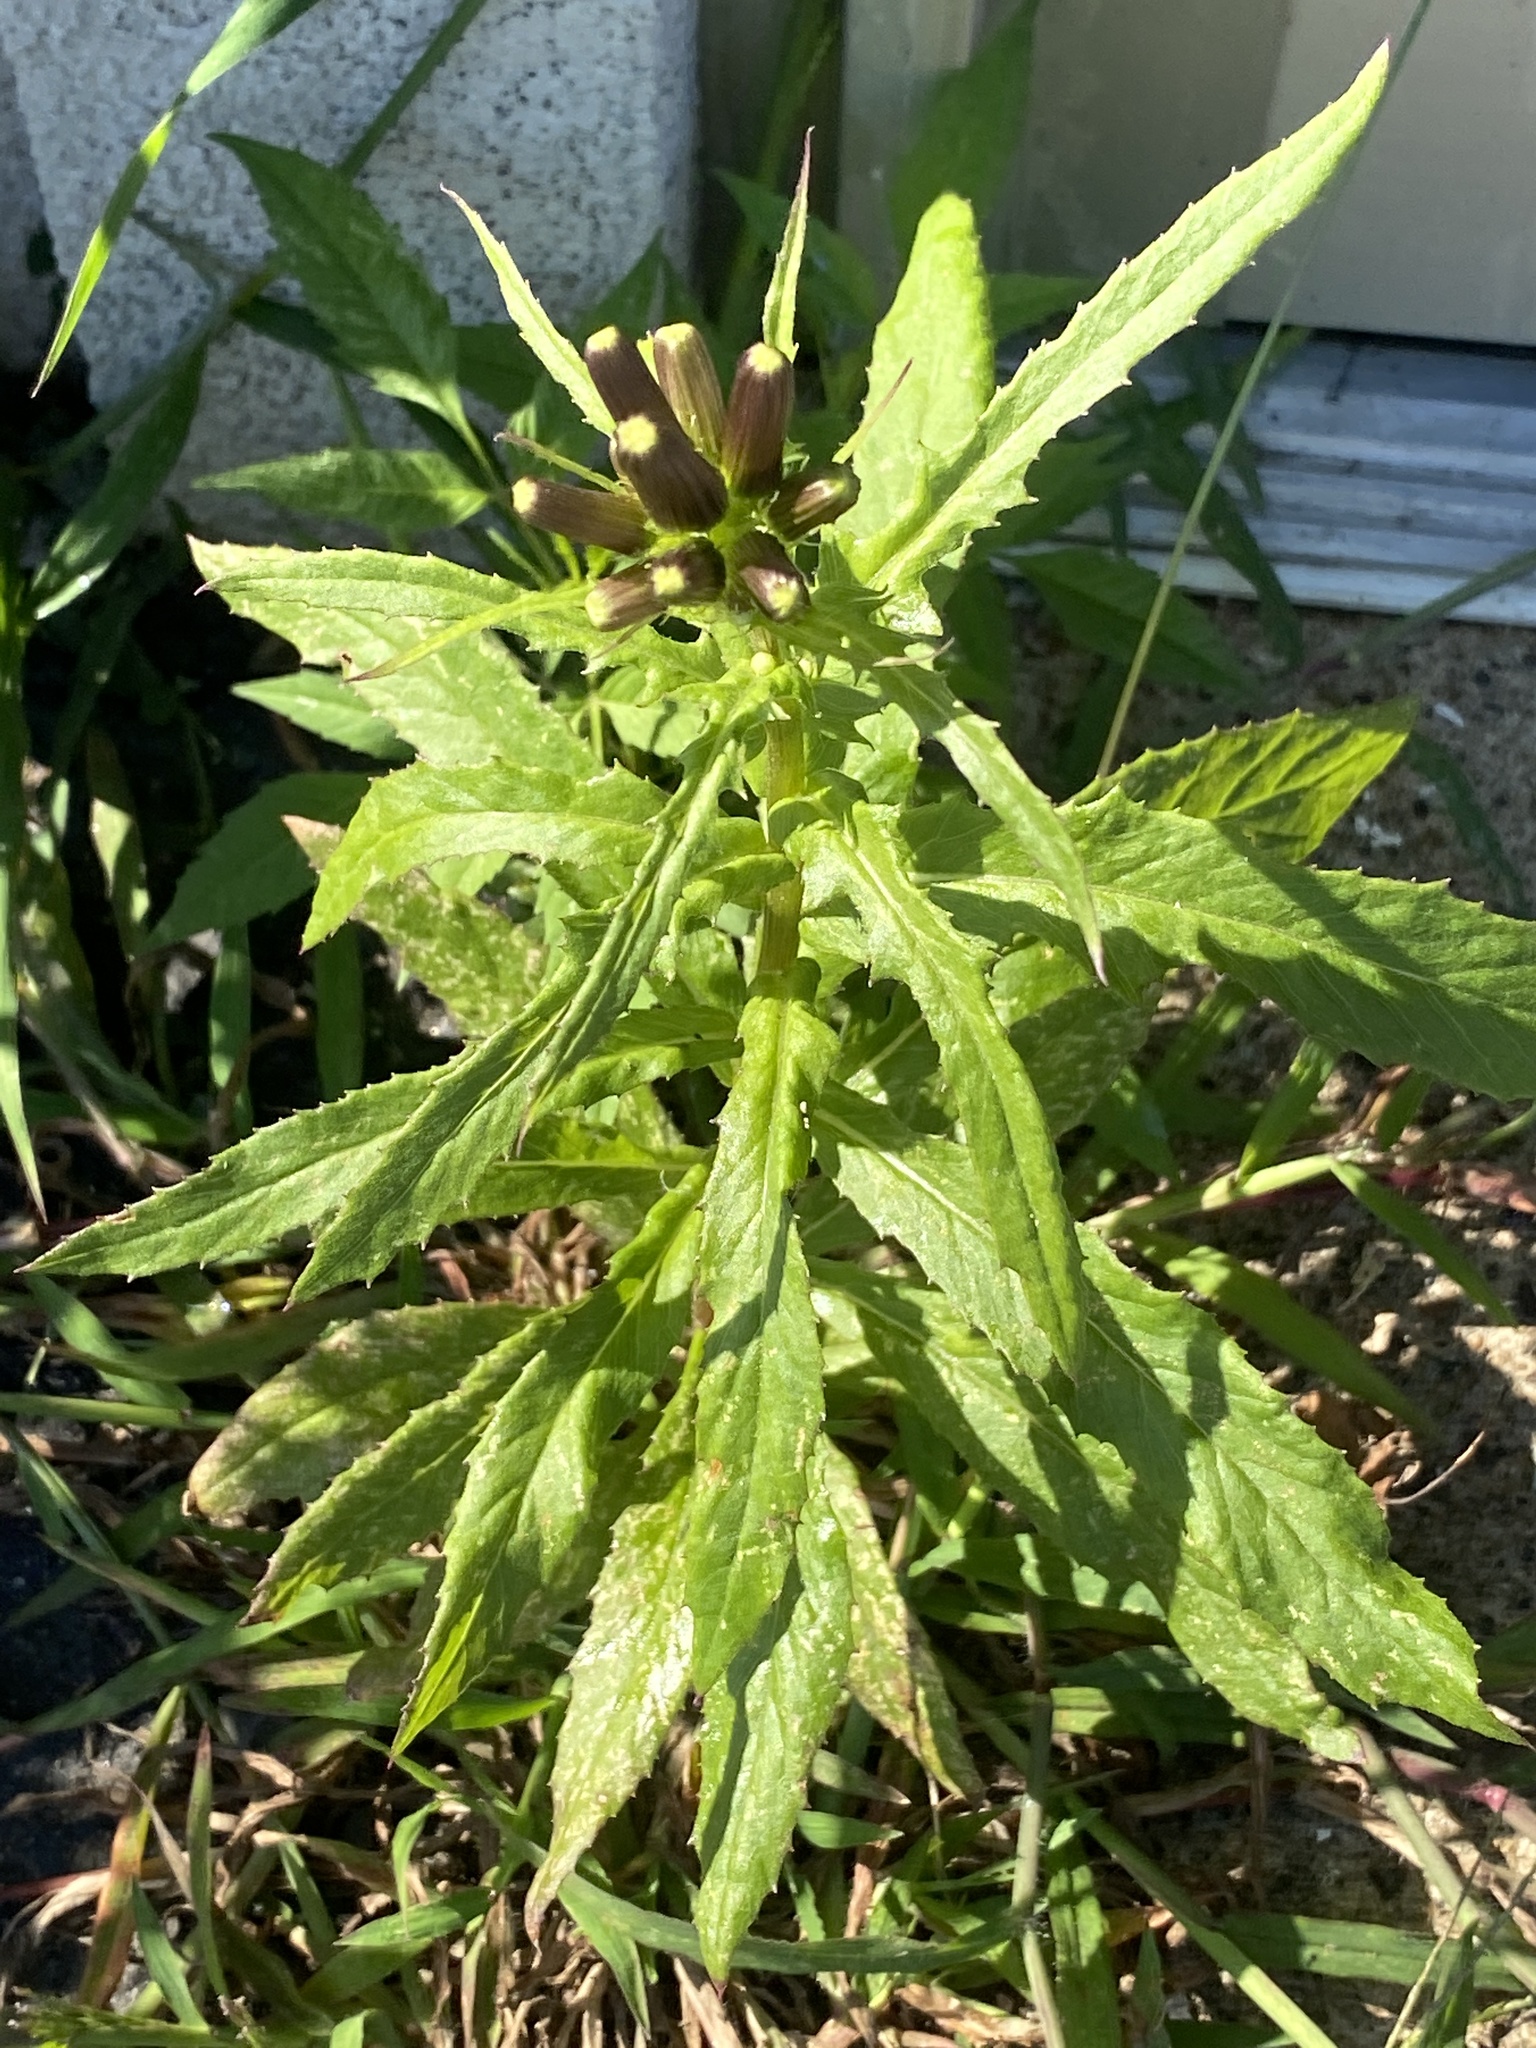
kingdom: Plantae
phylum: Tracheophyta
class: Magnoliopsida
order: Asterales
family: Asteraceae
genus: Erechtites
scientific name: Erechtites hieraciifolius
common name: American burnweed
